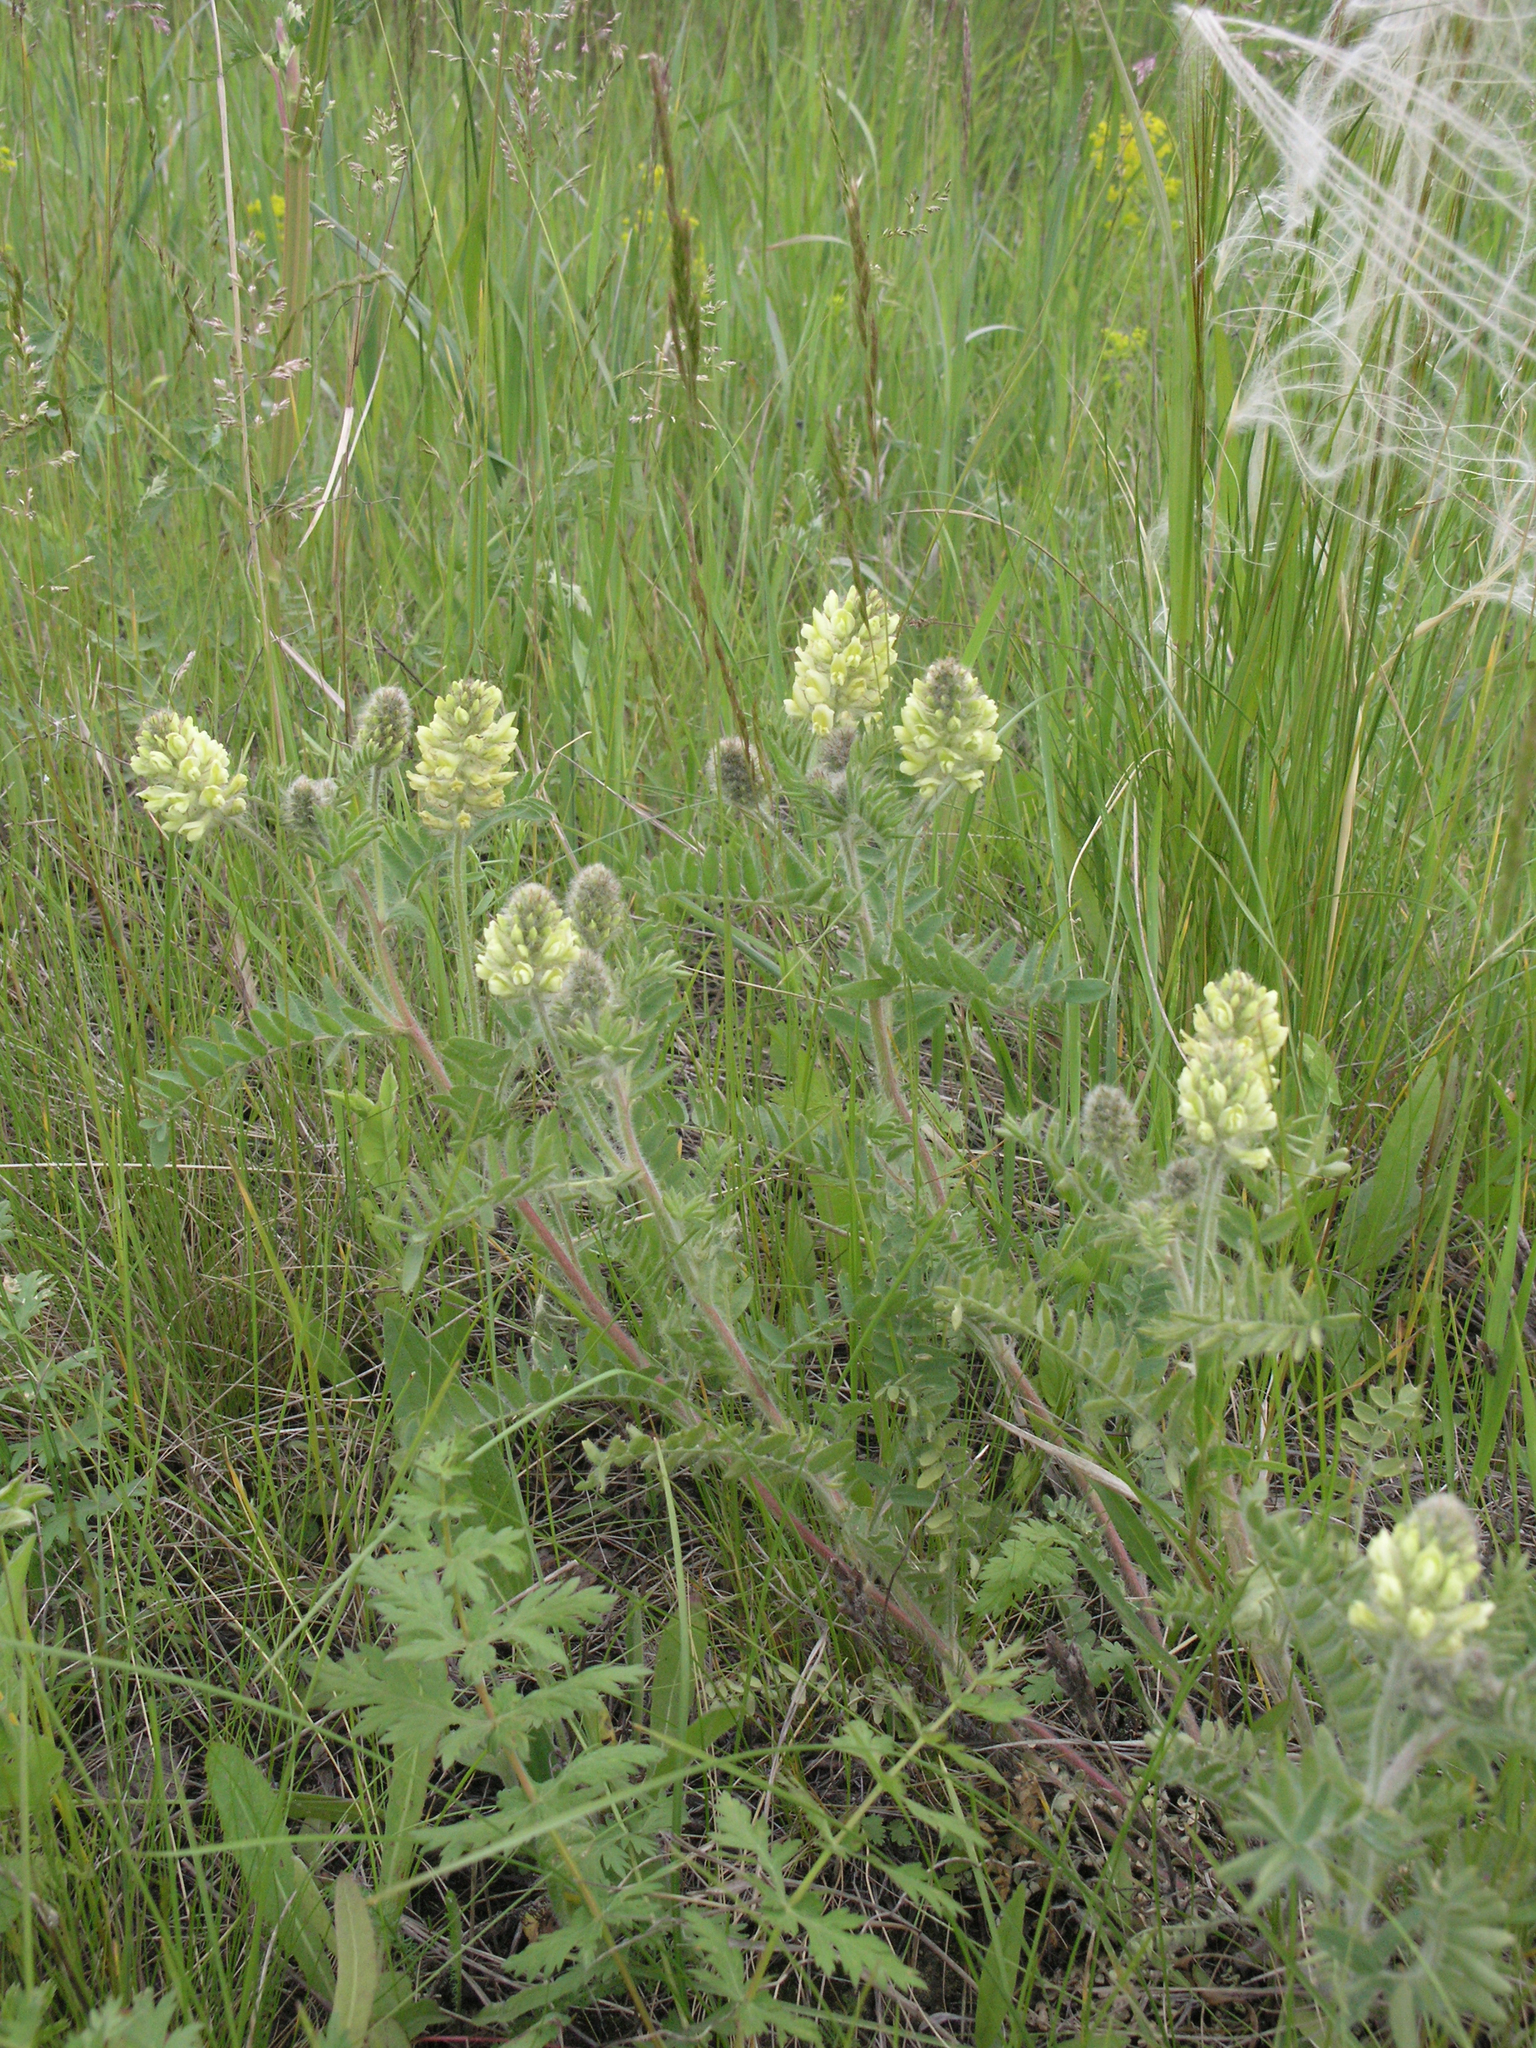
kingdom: Plantae
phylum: Tracheophyta
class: Magnoliopsida
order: Fabales
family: Fabaceae
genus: Oxytropis
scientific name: Oxytropis pilosa
